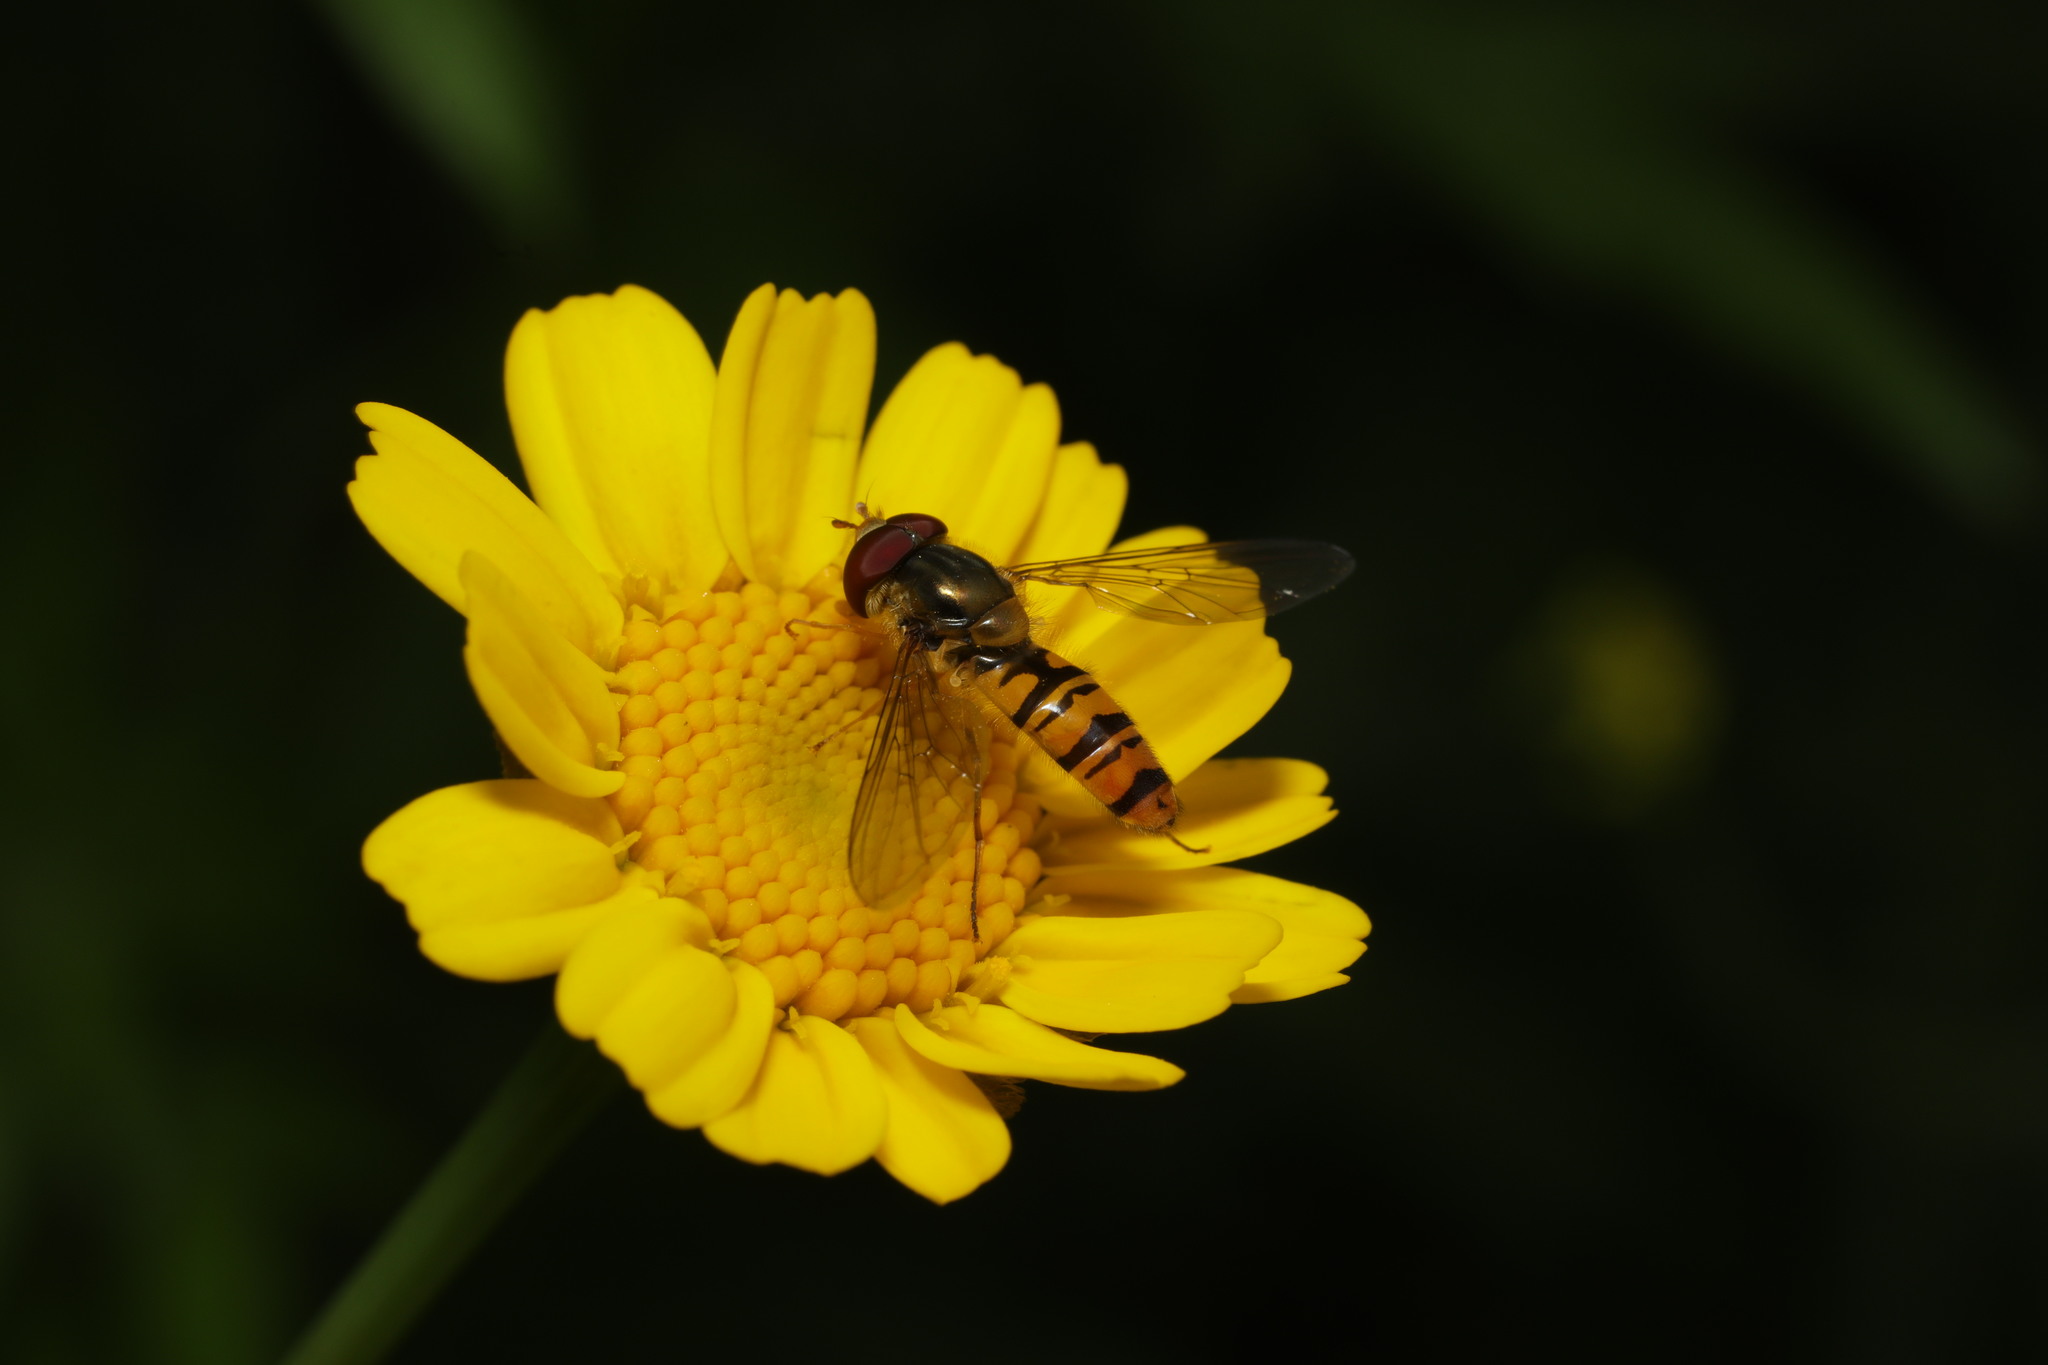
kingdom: Animalia
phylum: Arthropoda
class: Insecta
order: Diptera
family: Syrphidae
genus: Episyrphus
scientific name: Episyrphus balteatus
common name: Marmalade hoverfly
